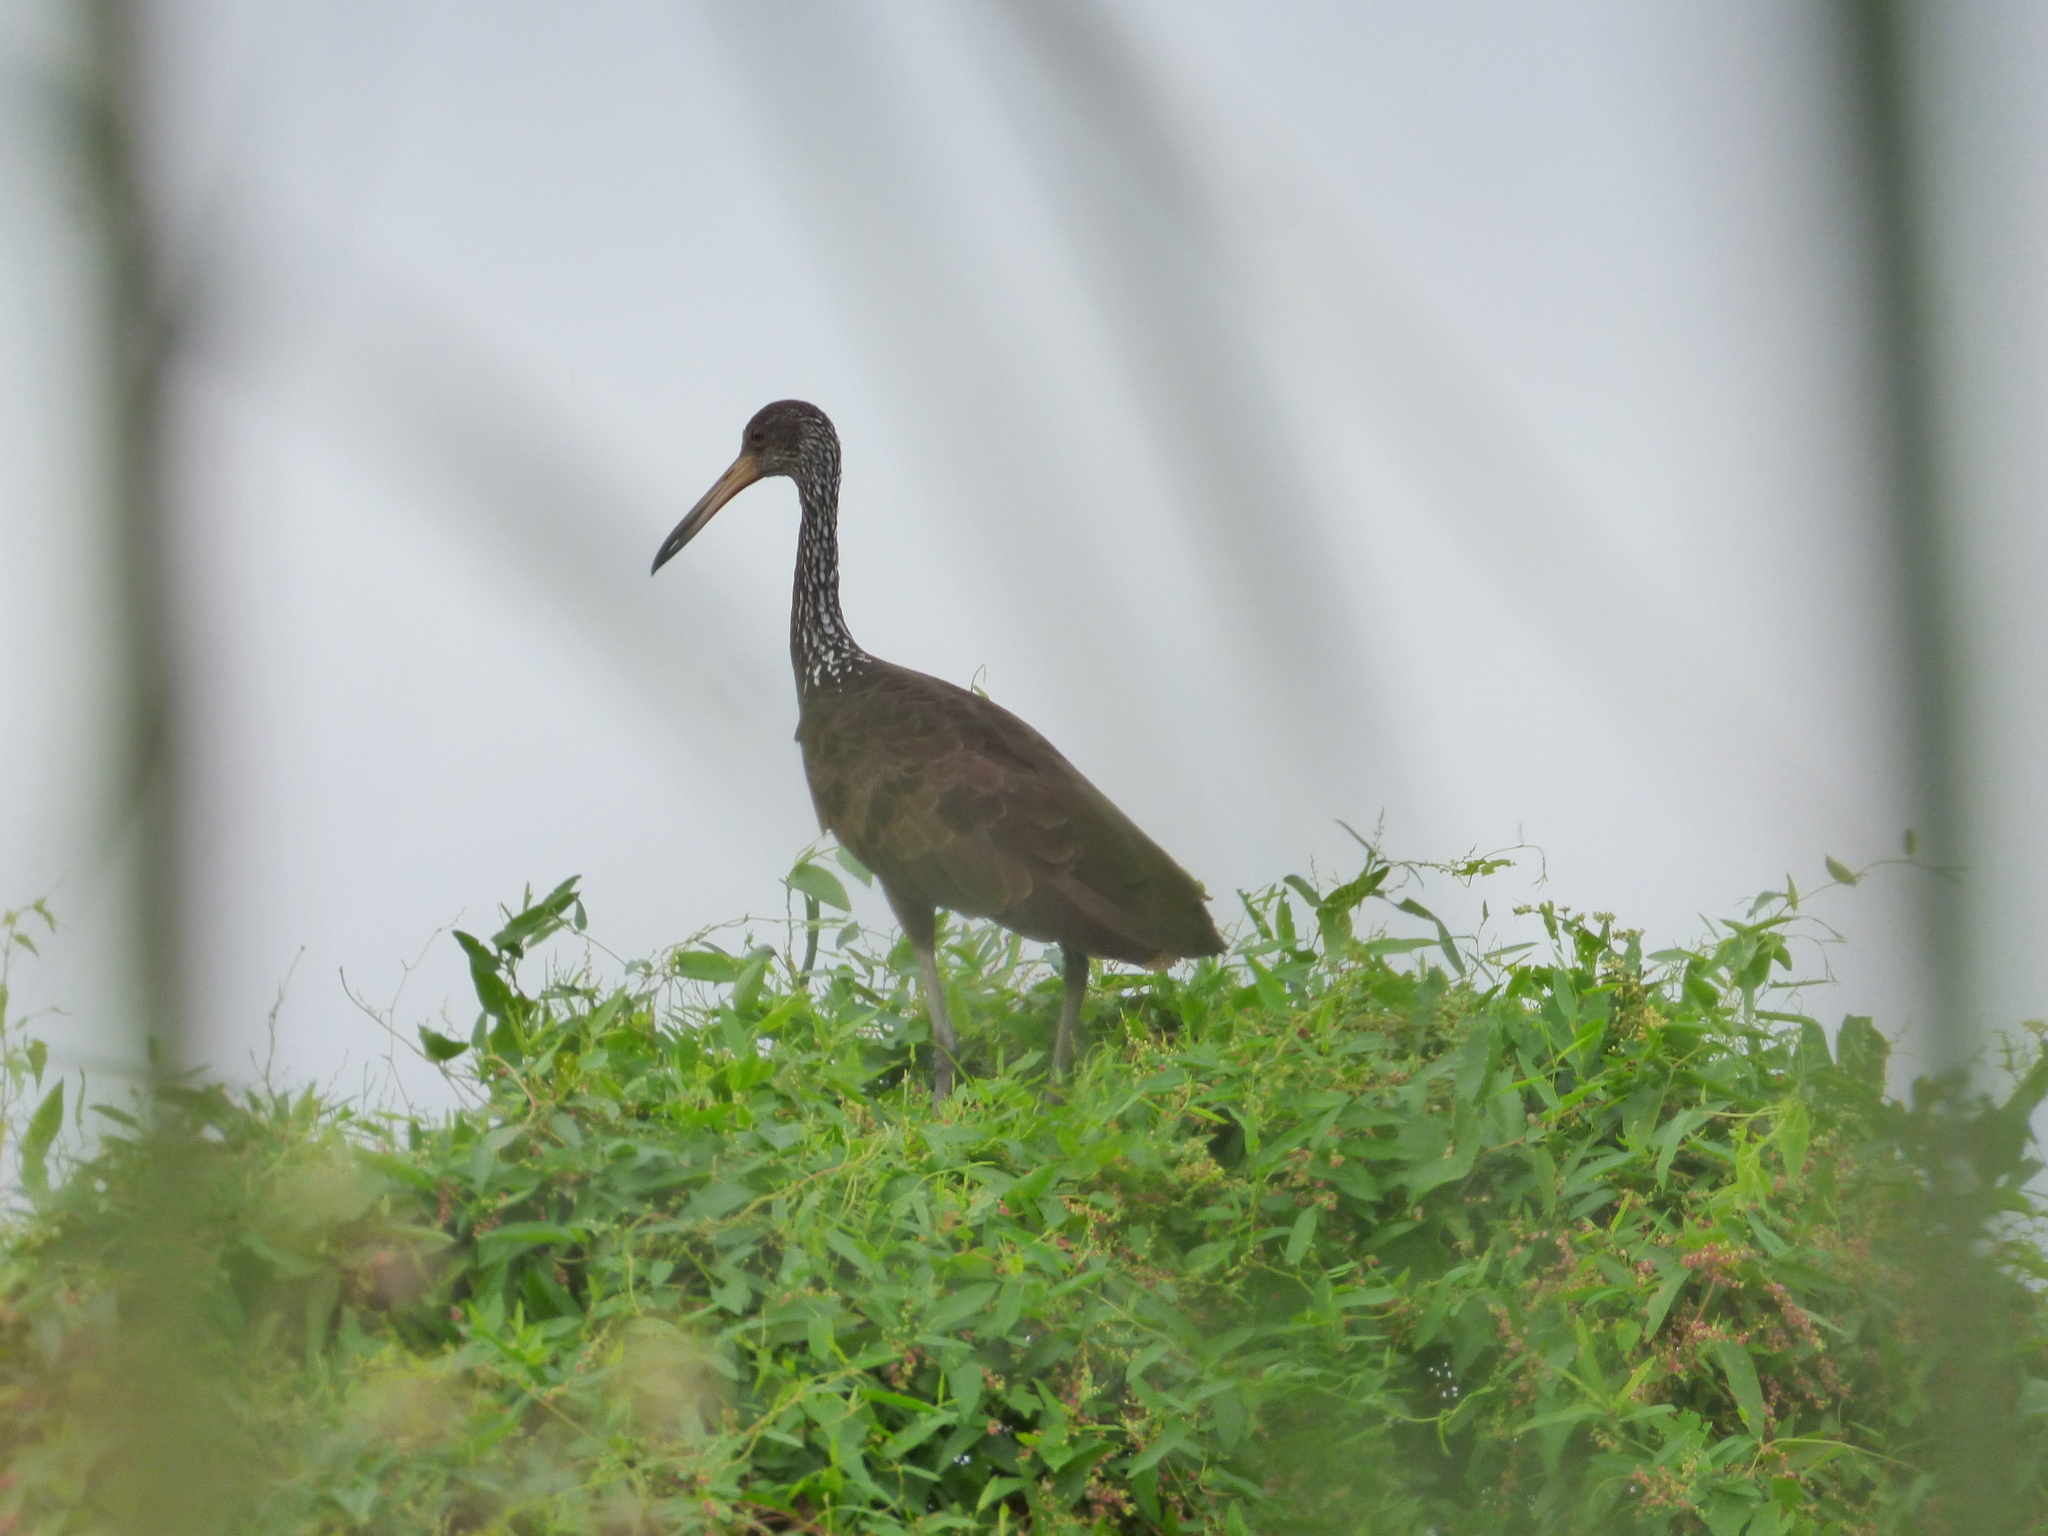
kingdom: Animalia
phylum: Chordata
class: Aves
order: Gruiformes
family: Aramidae
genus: Aramus
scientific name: Aramus guarauna
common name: Limpkin
